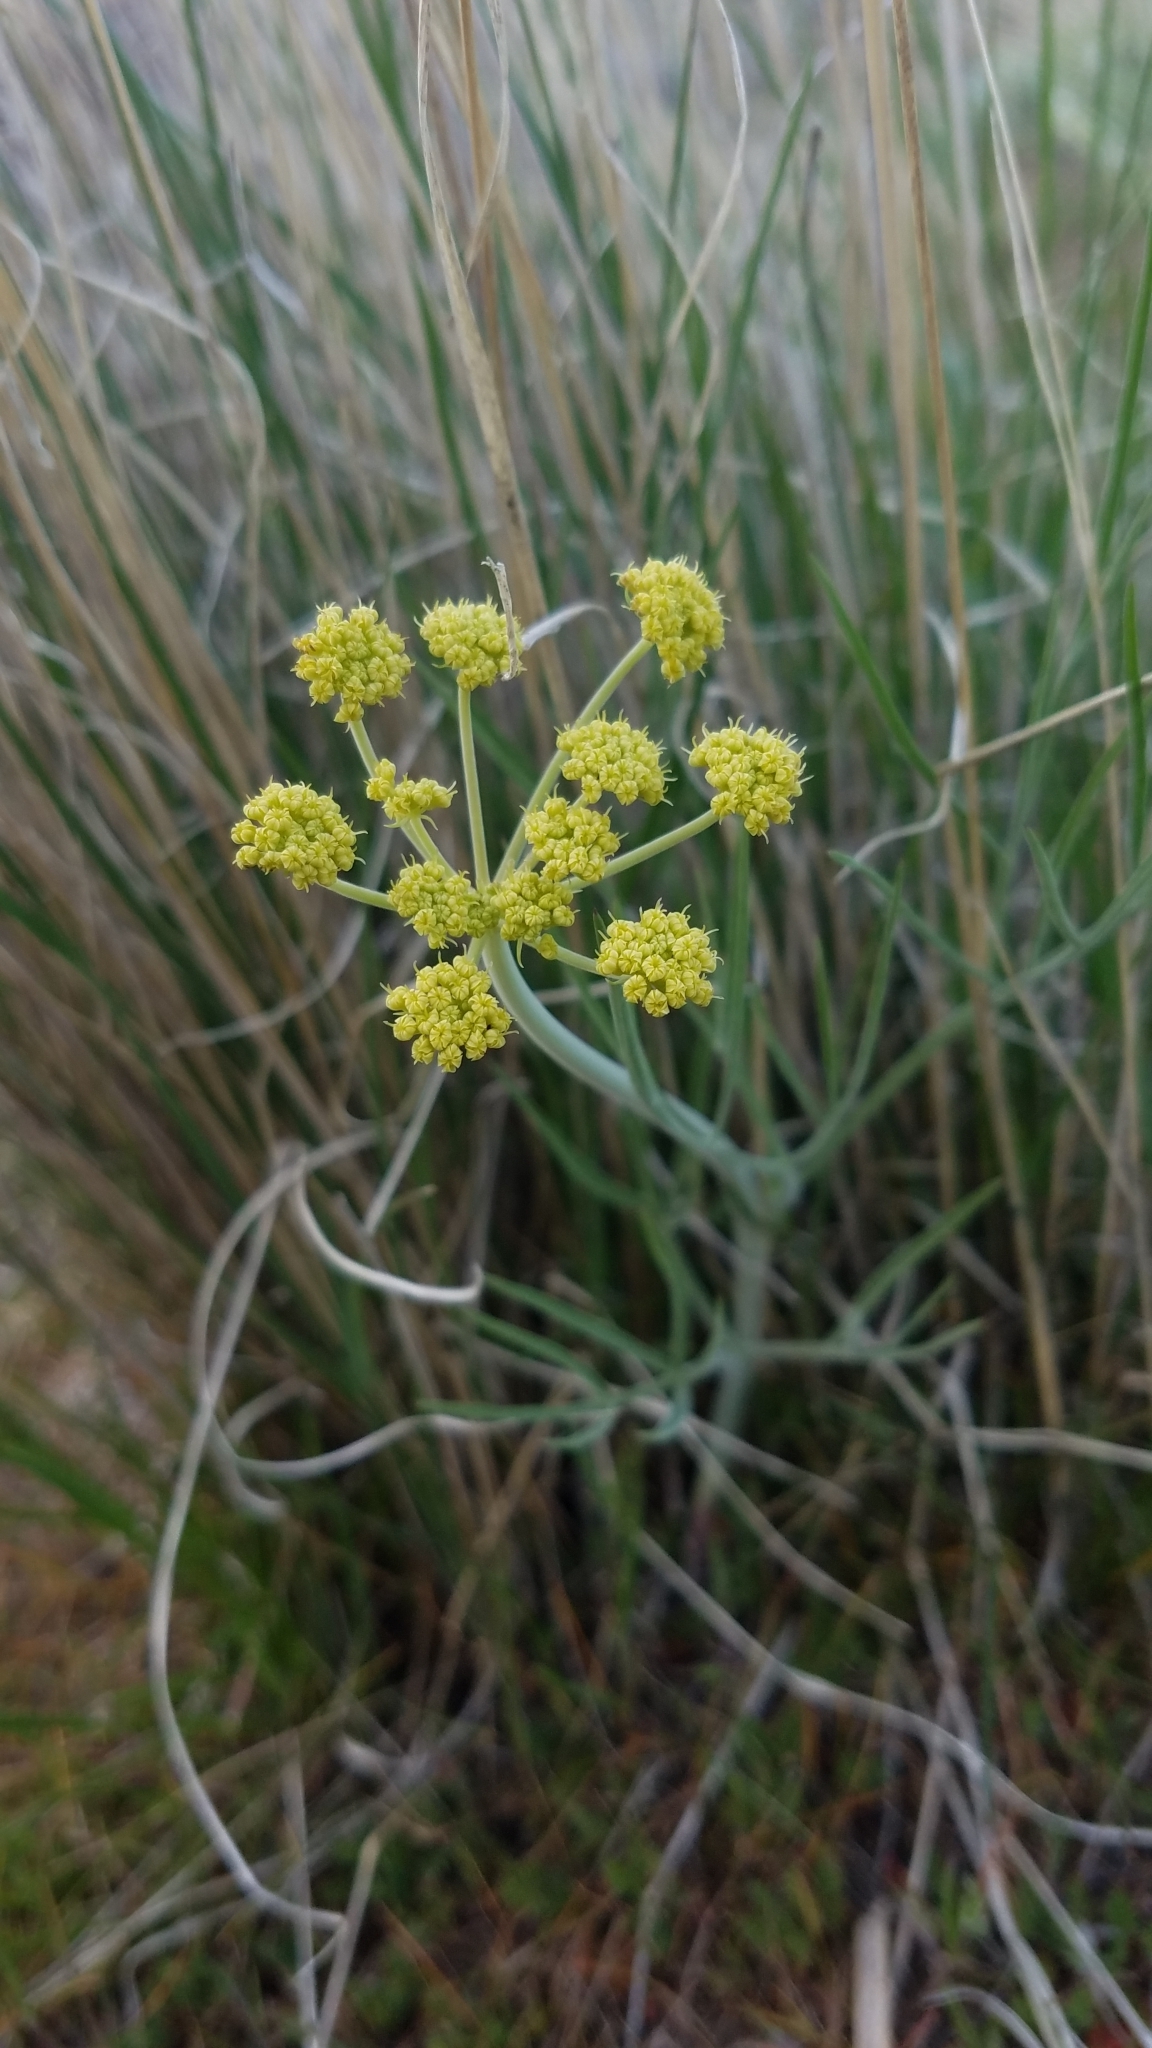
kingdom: Plantae
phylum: Tracheophyta
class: Magnoliopsida
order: Apiales
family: Apiaceae
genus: Lomatium
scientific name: Lomatium triternatum
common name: Ternate lomatium
